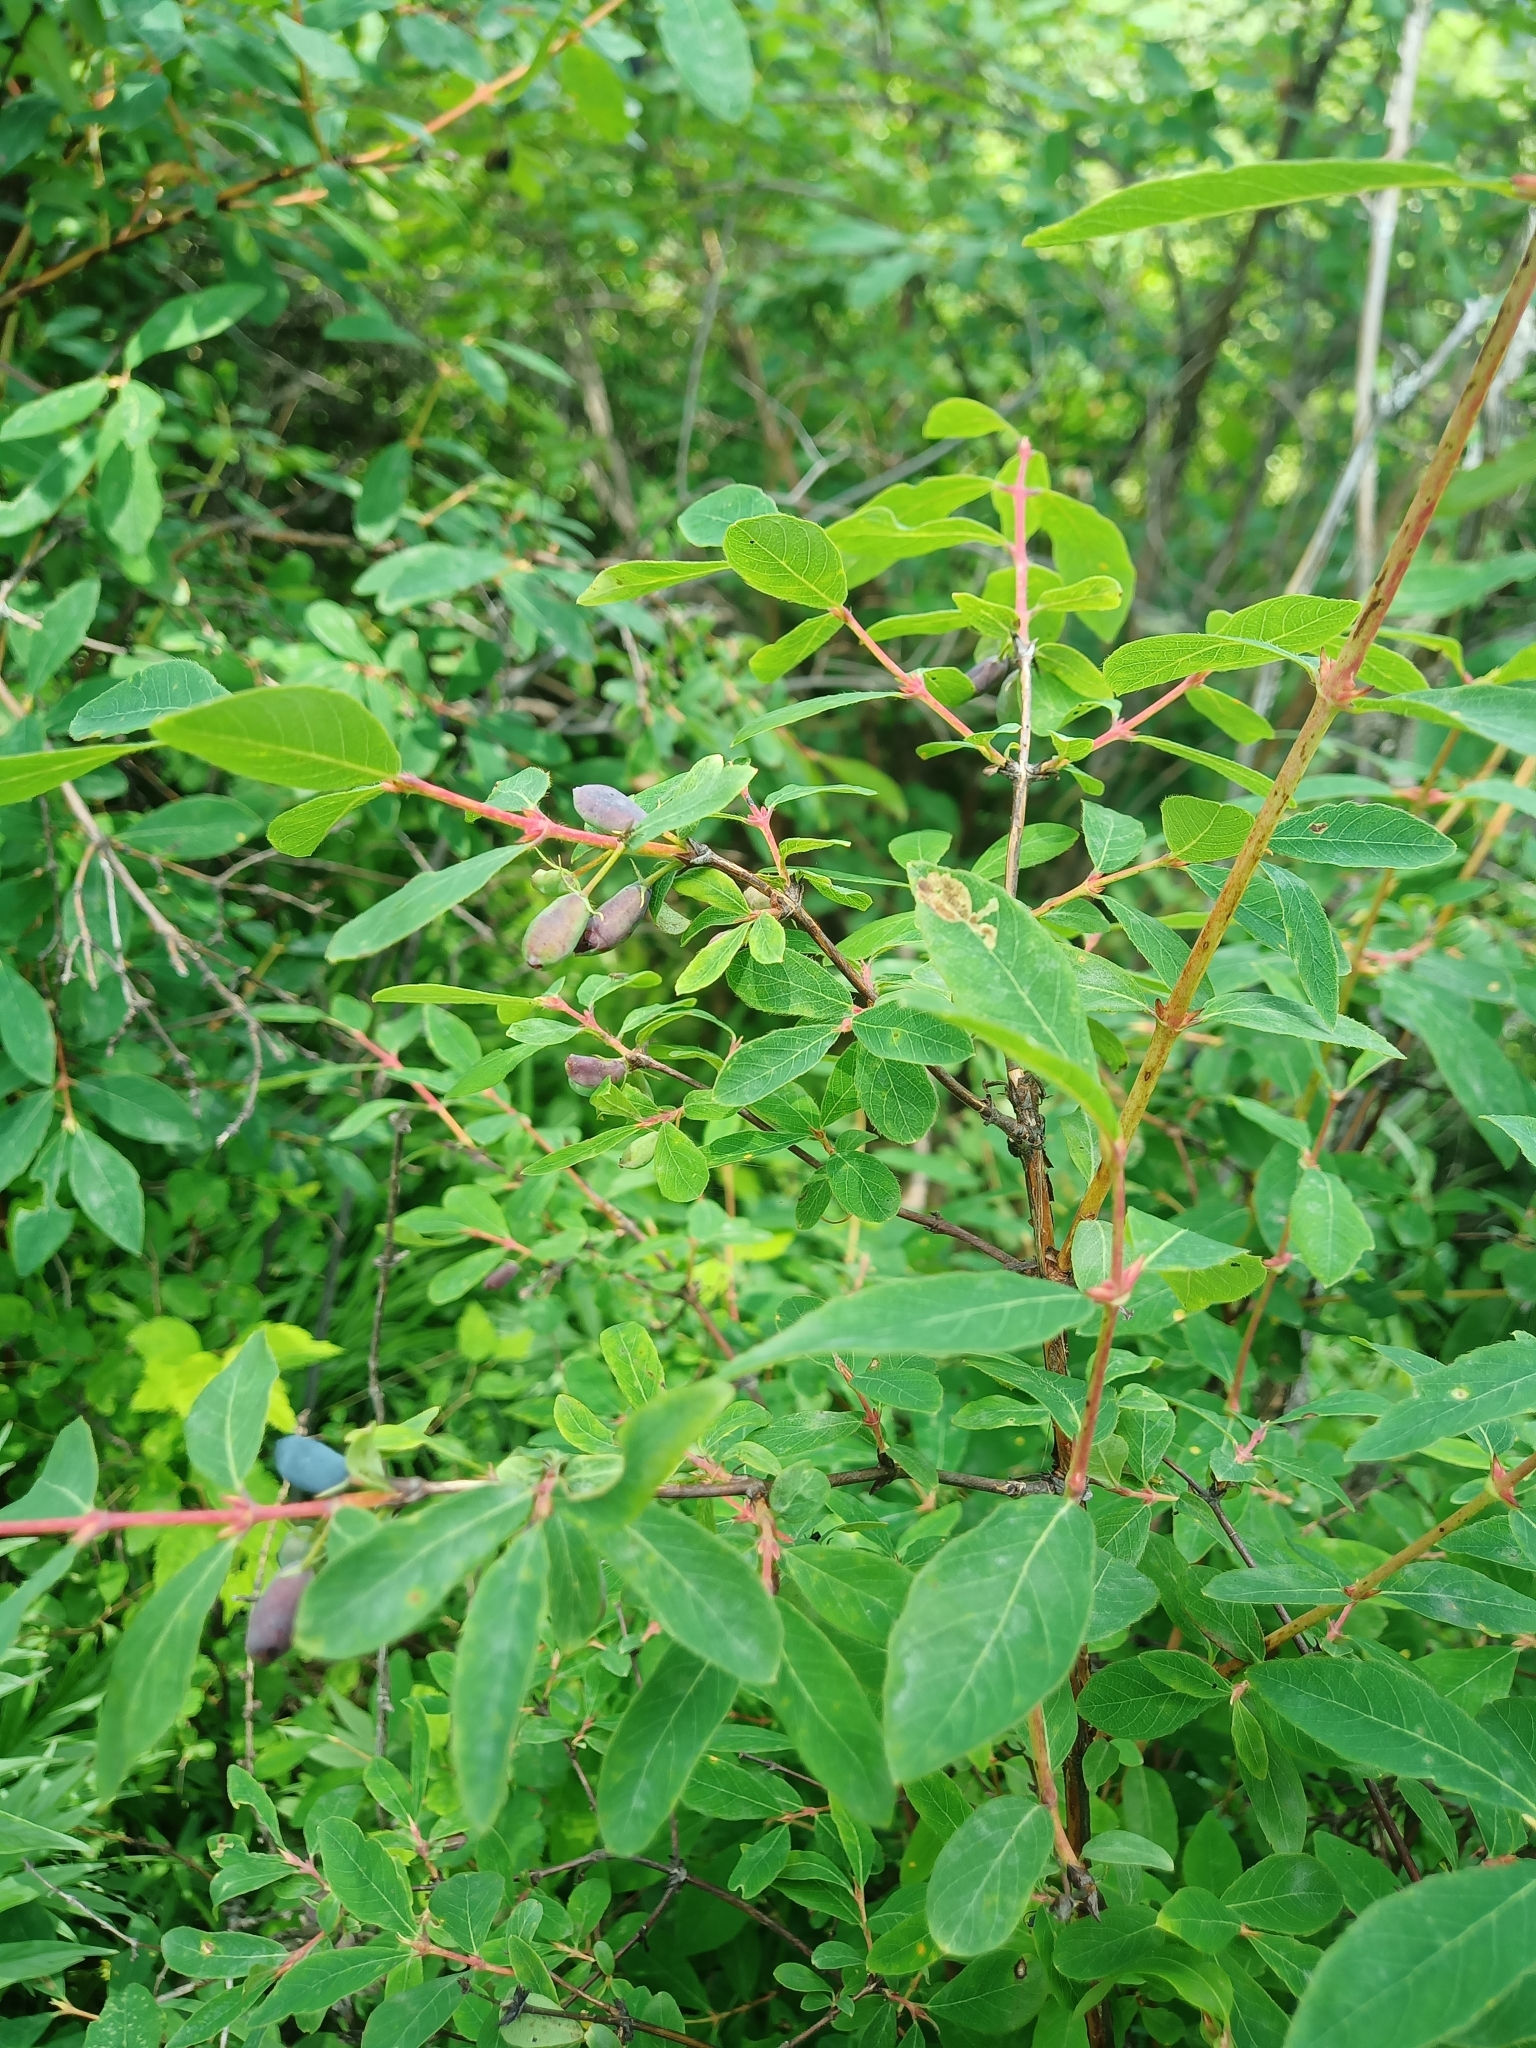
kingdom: Plantae
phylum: Tracheophyta
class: Magnoliopsida
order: Dipsacales
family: Caprifoliaceae
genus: Lonicera
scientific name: Lonicera caerulea
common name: Blue honeysuckle
